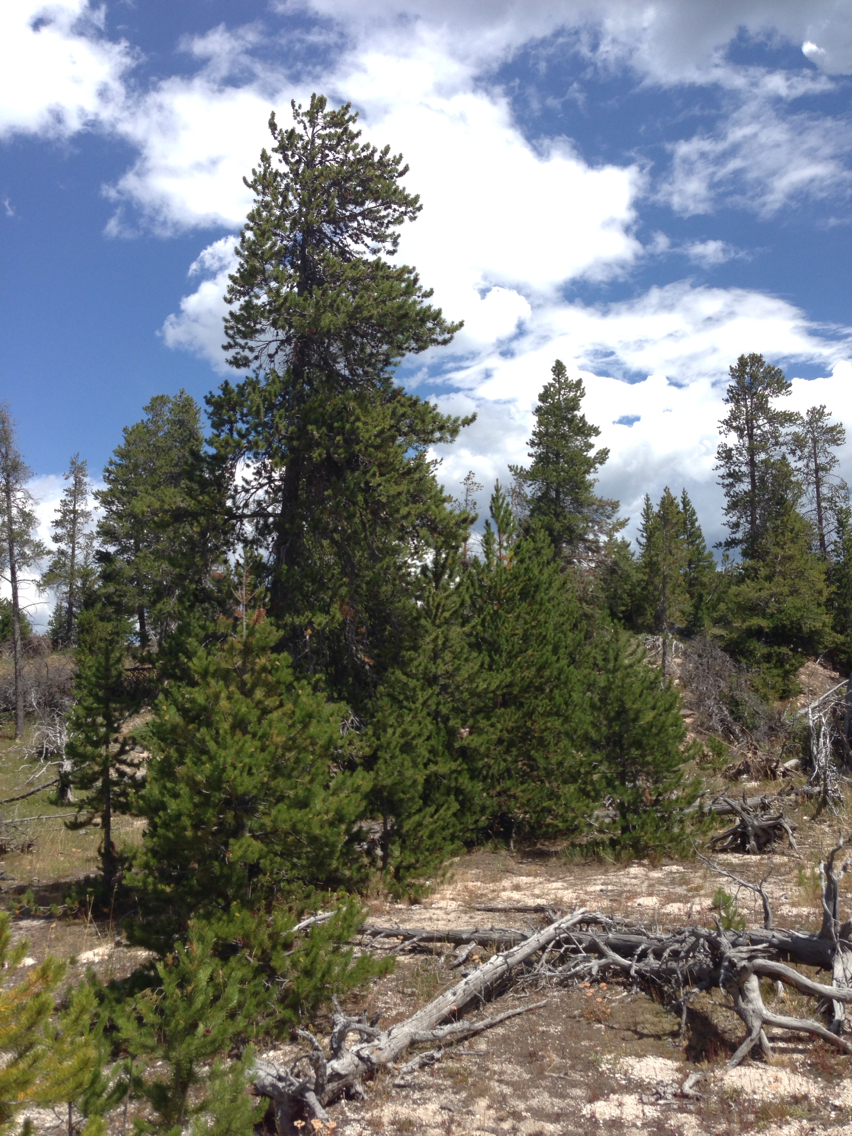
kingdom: Plantae
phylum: Tracheophyta
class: Pinopsida
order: Pinales
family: Pinaceae
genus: Pinus
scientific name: Pinus contorta
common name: Lodgepole pine
